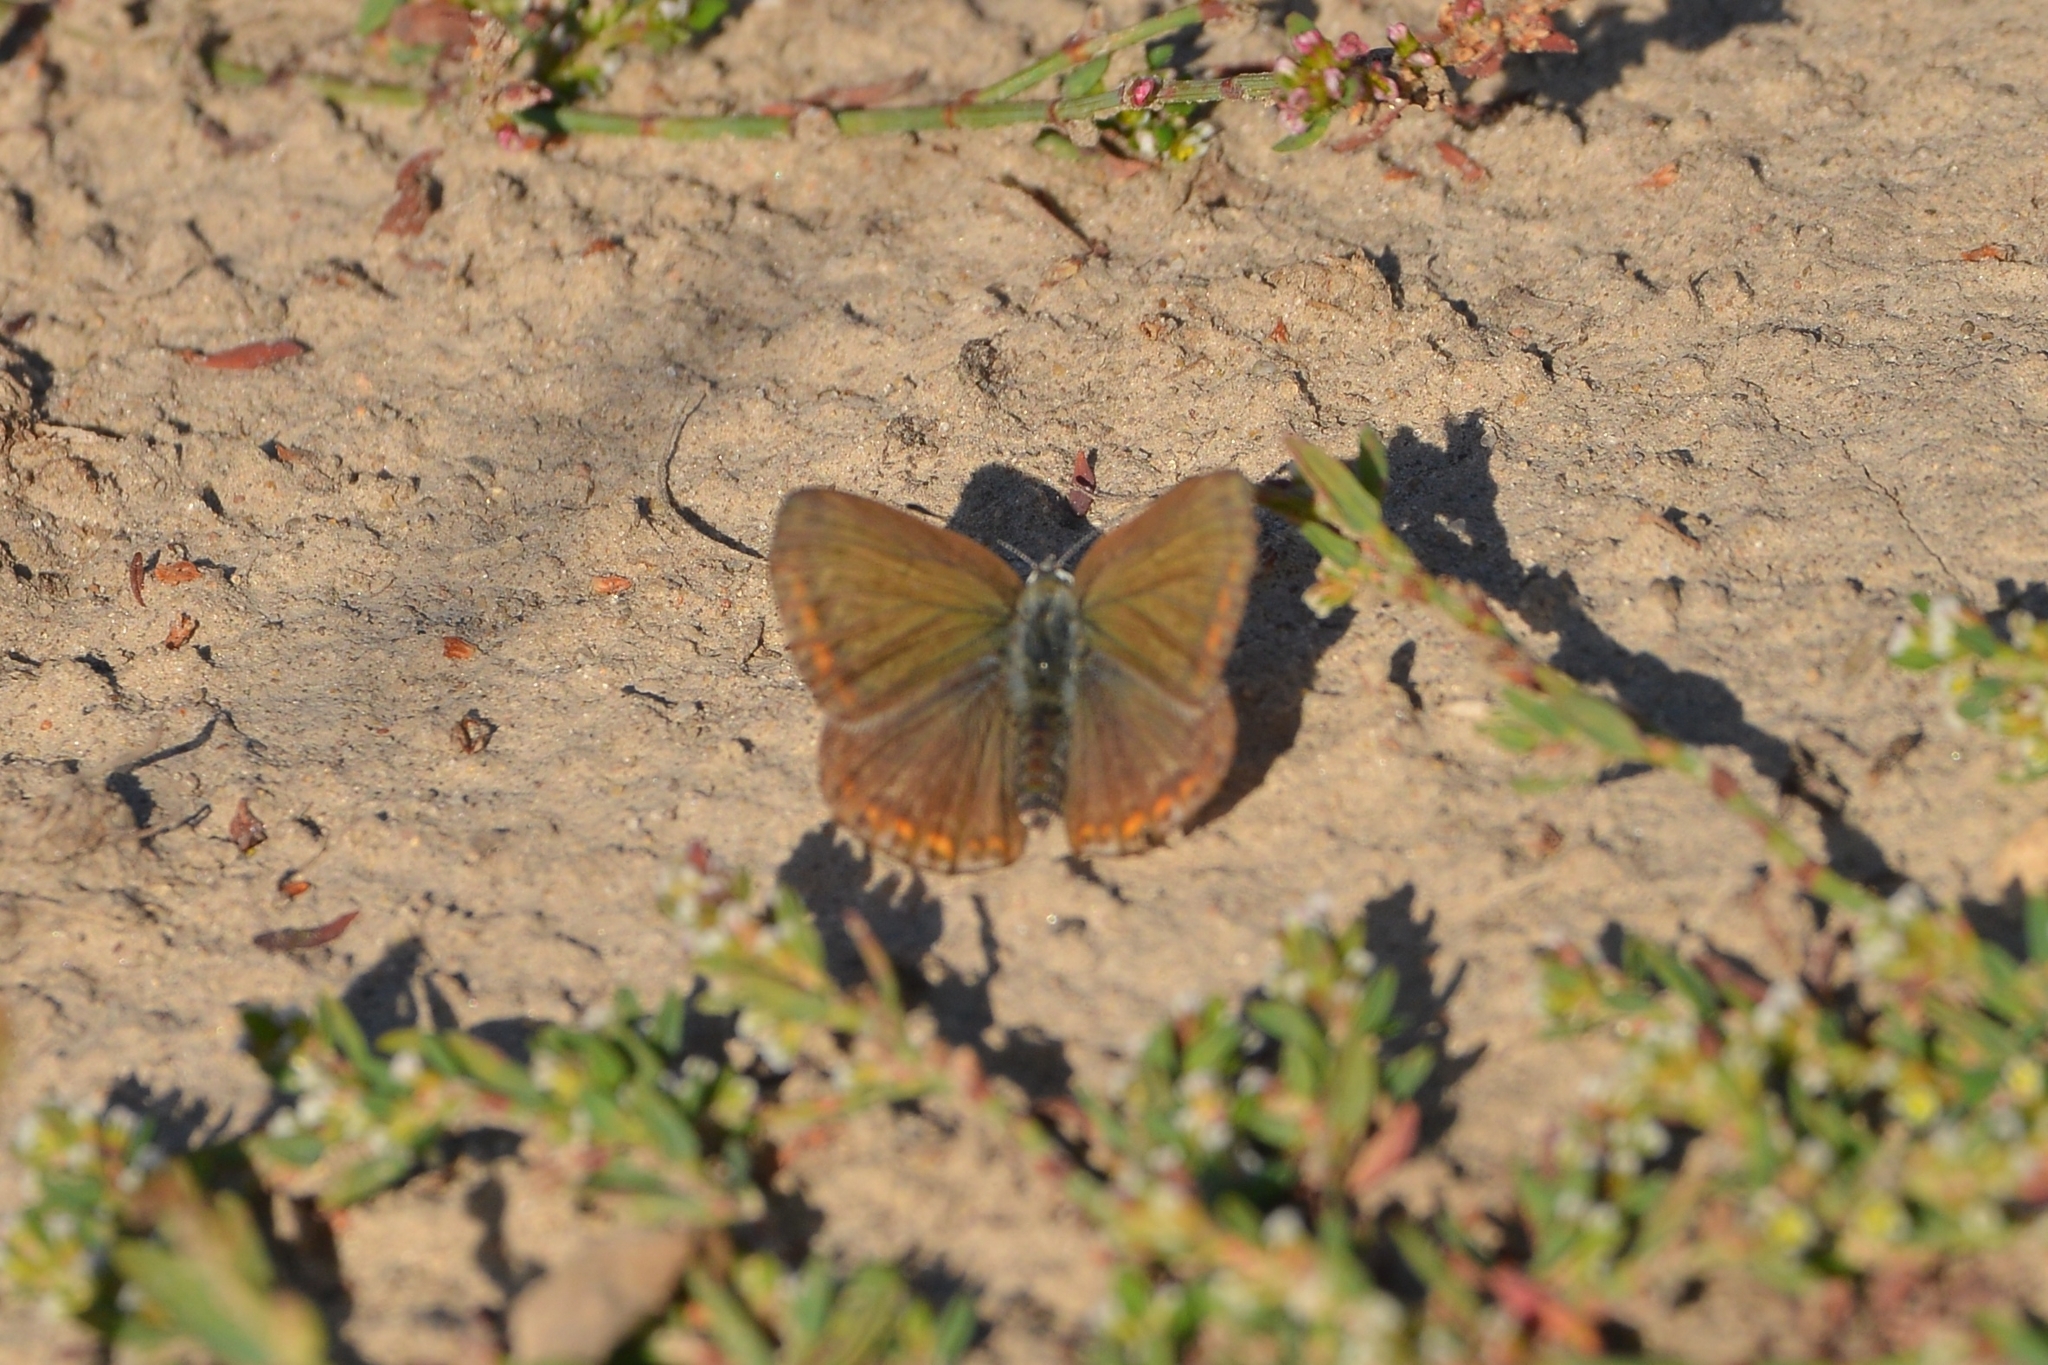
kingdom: Animalia
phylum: Arthropoda
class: Insecta
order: Lepidoptera
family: Lycaenidae
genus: Polyommatus
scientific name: Polyommatus icarus
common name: Common blue
